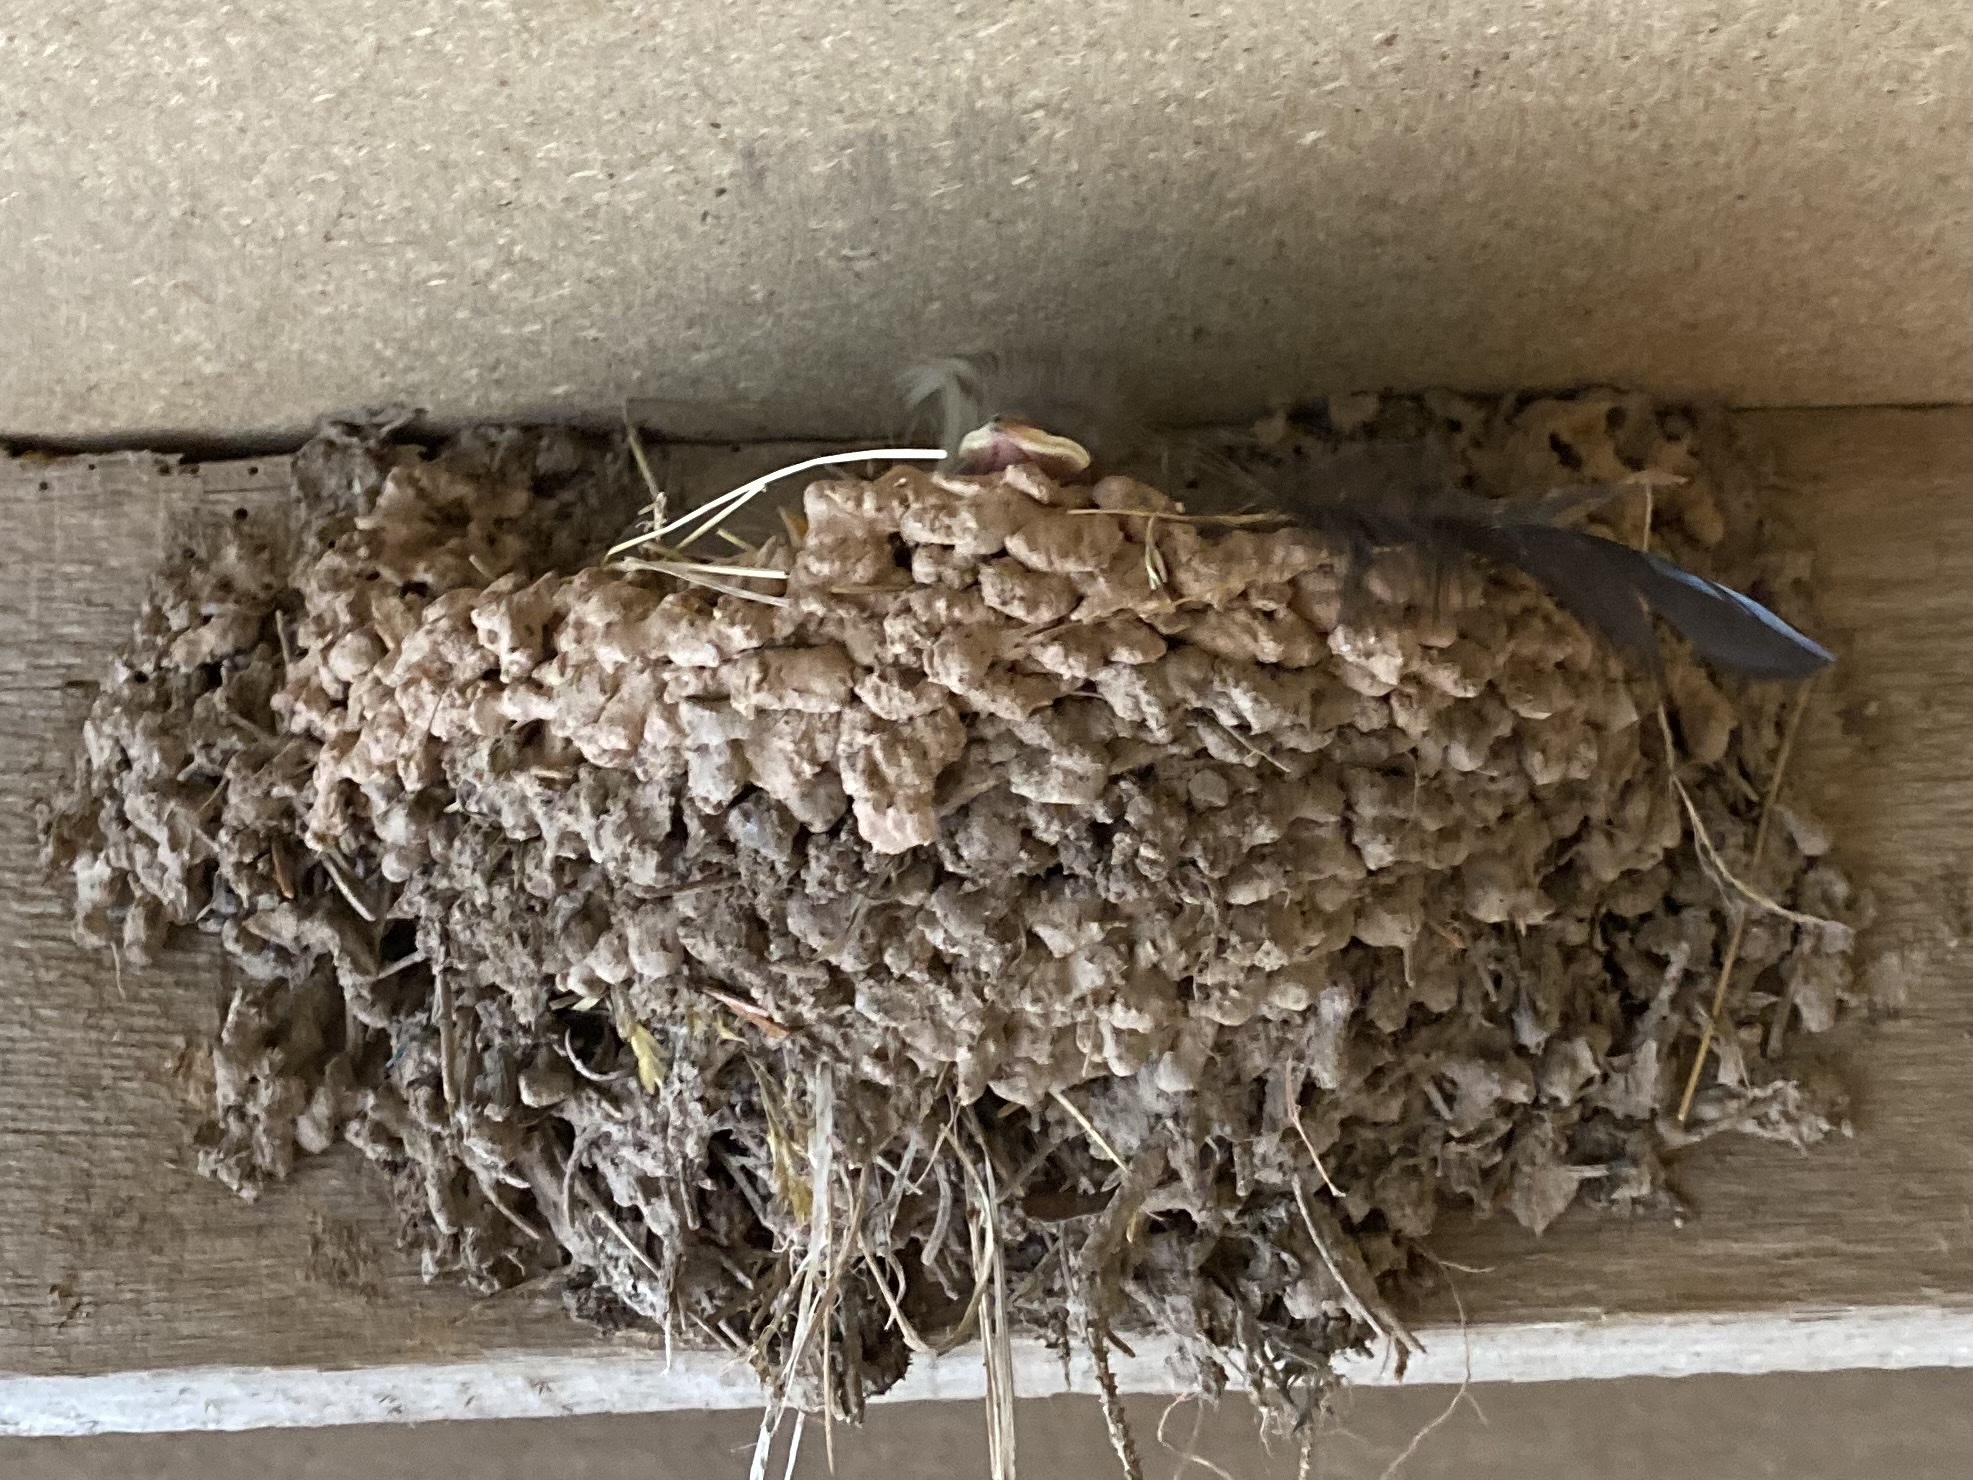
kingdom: Animalia
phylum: Chordata
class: Amphibia
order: Anura
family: Bufonidae
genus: Bufo
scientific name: Bufo bufo
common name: Common toad
